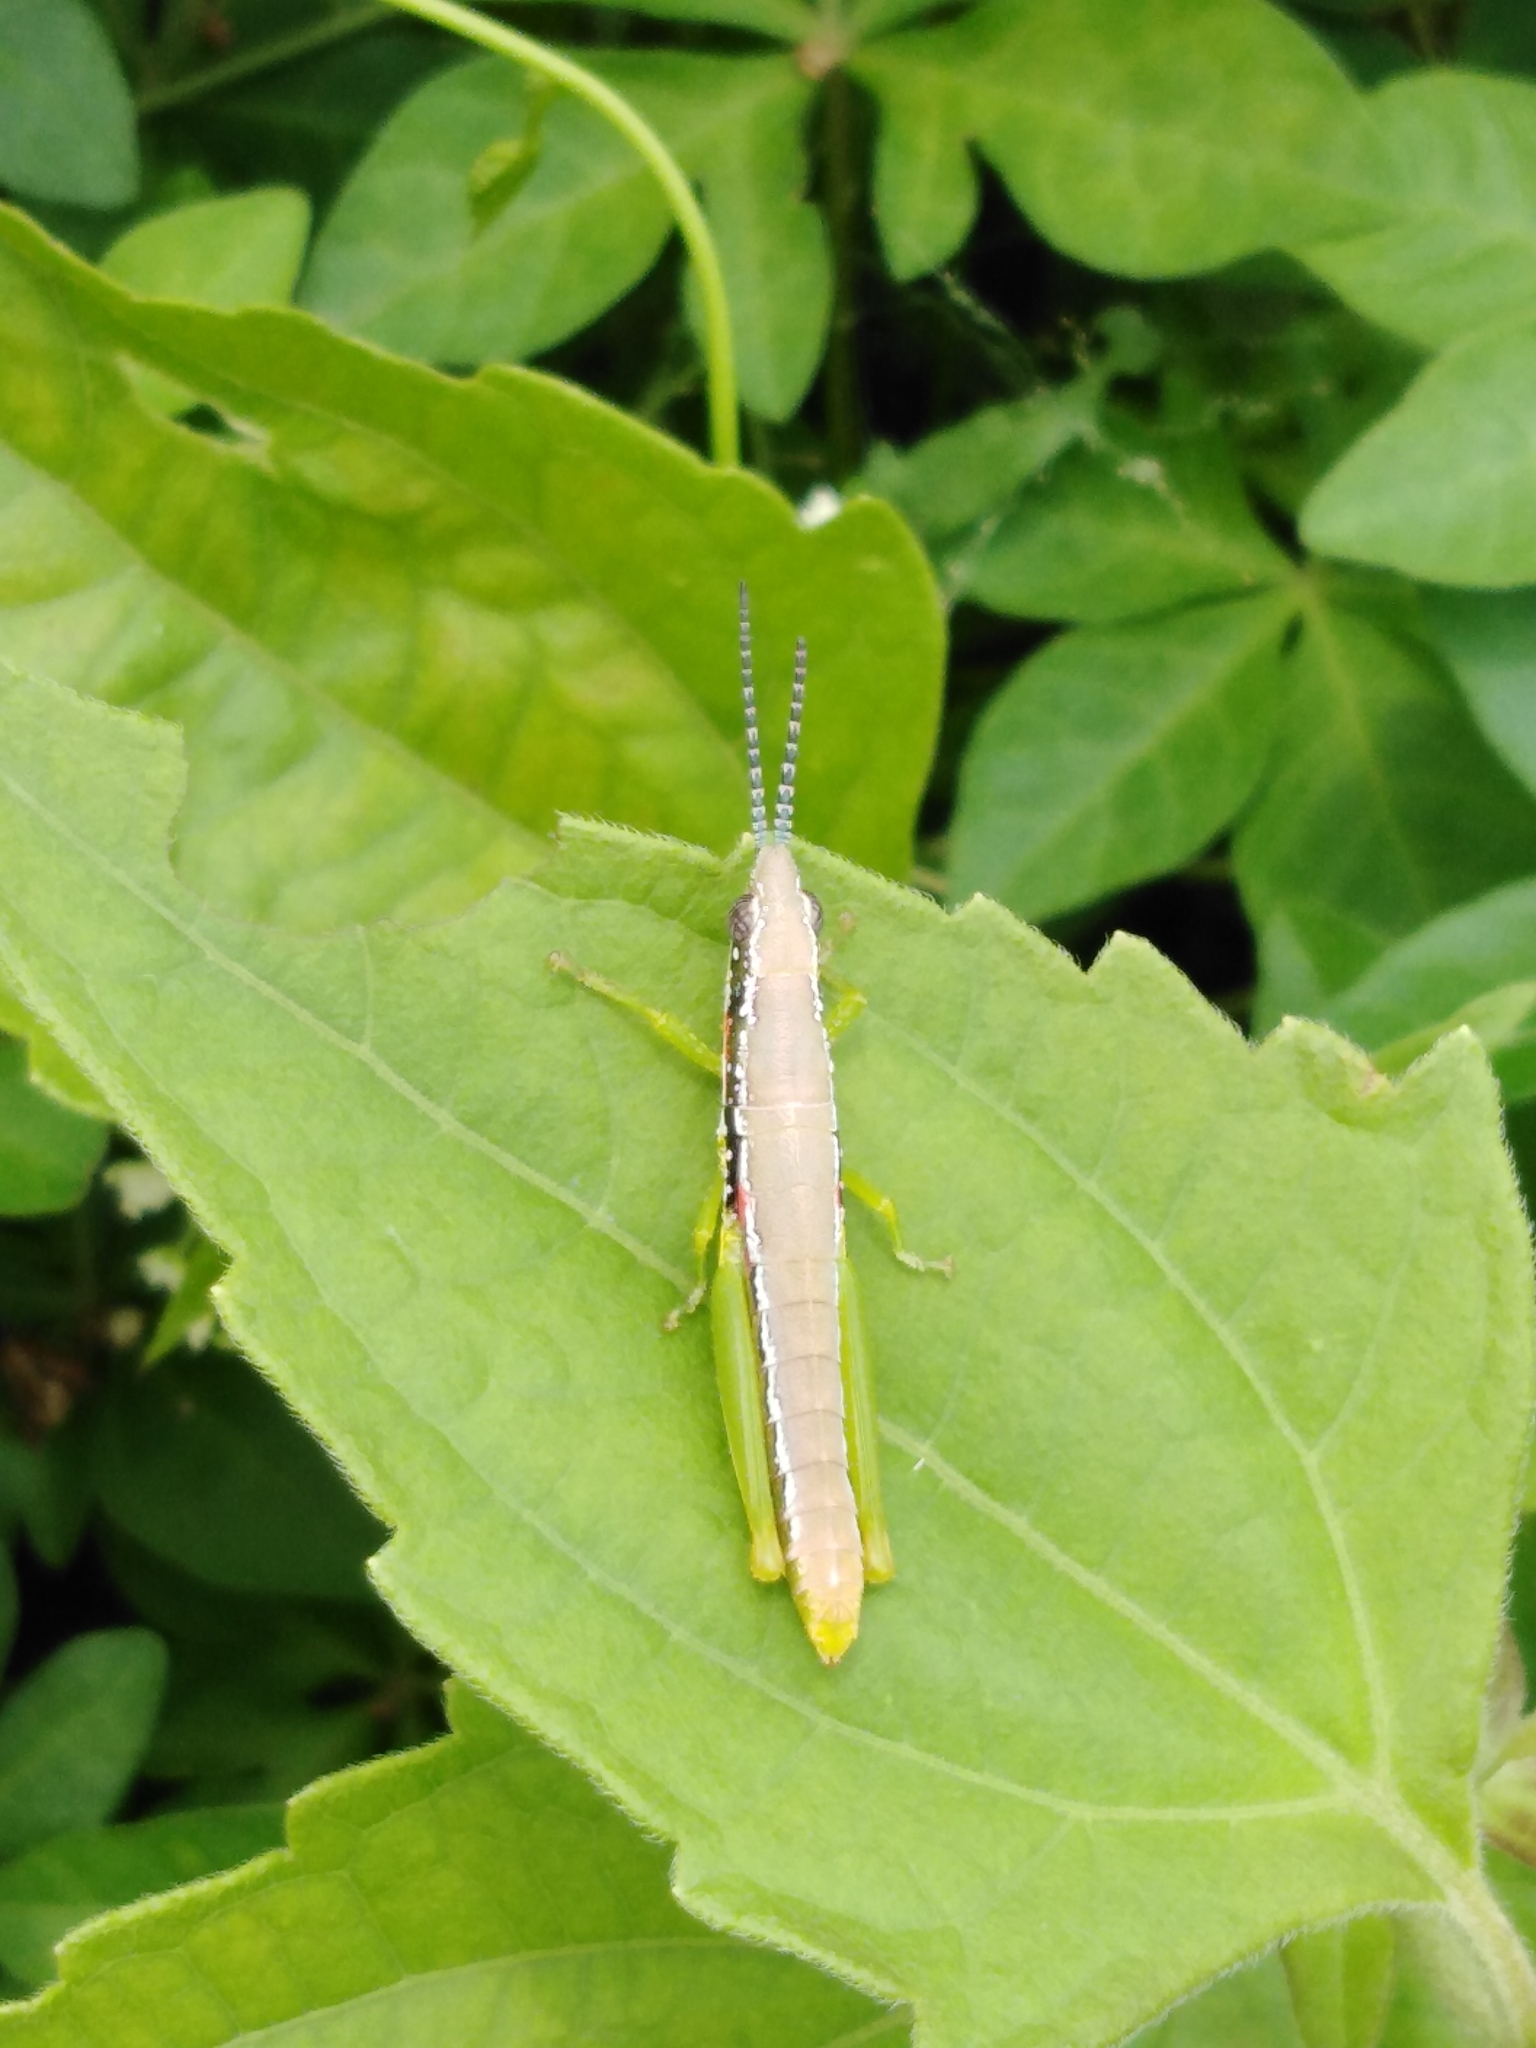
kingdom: Animalia
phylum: Arthropoda
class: Insecta
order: Orthoptera
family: Pyrgomorphidae
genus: Neorthacris
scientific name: Neorthacris simulans
